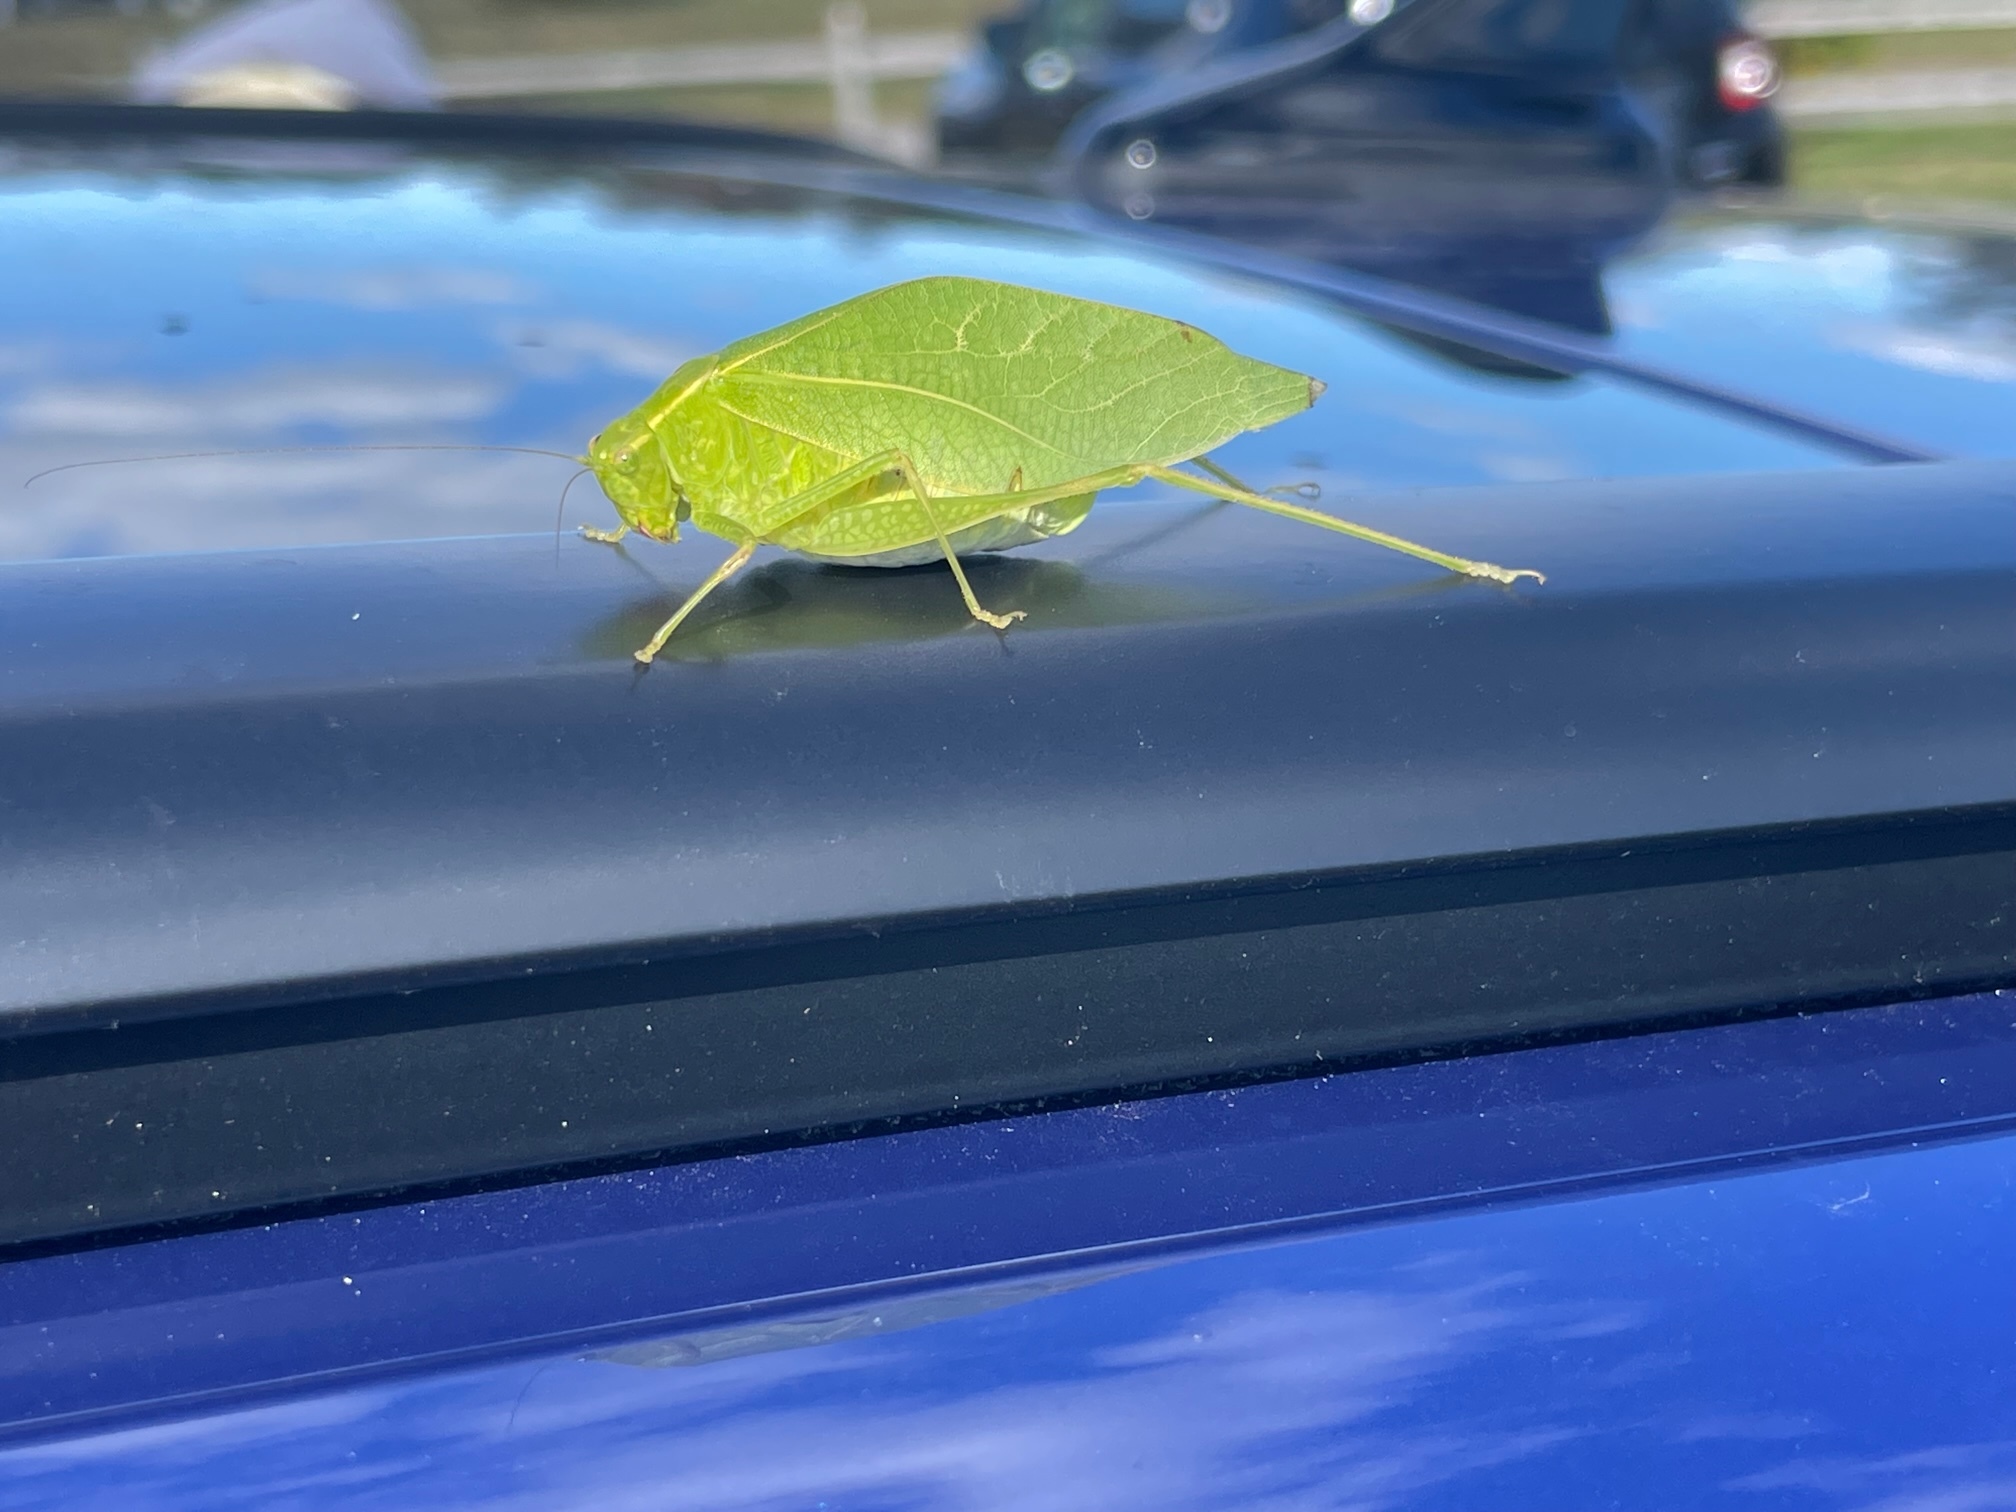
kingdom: Animalia
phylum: Arthropoda
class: Insecta
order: Orthoptera
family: Tettigoniidae
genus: Microcentrum
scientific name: Microcentrum rhombifolium
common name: Broad-winged katydid
